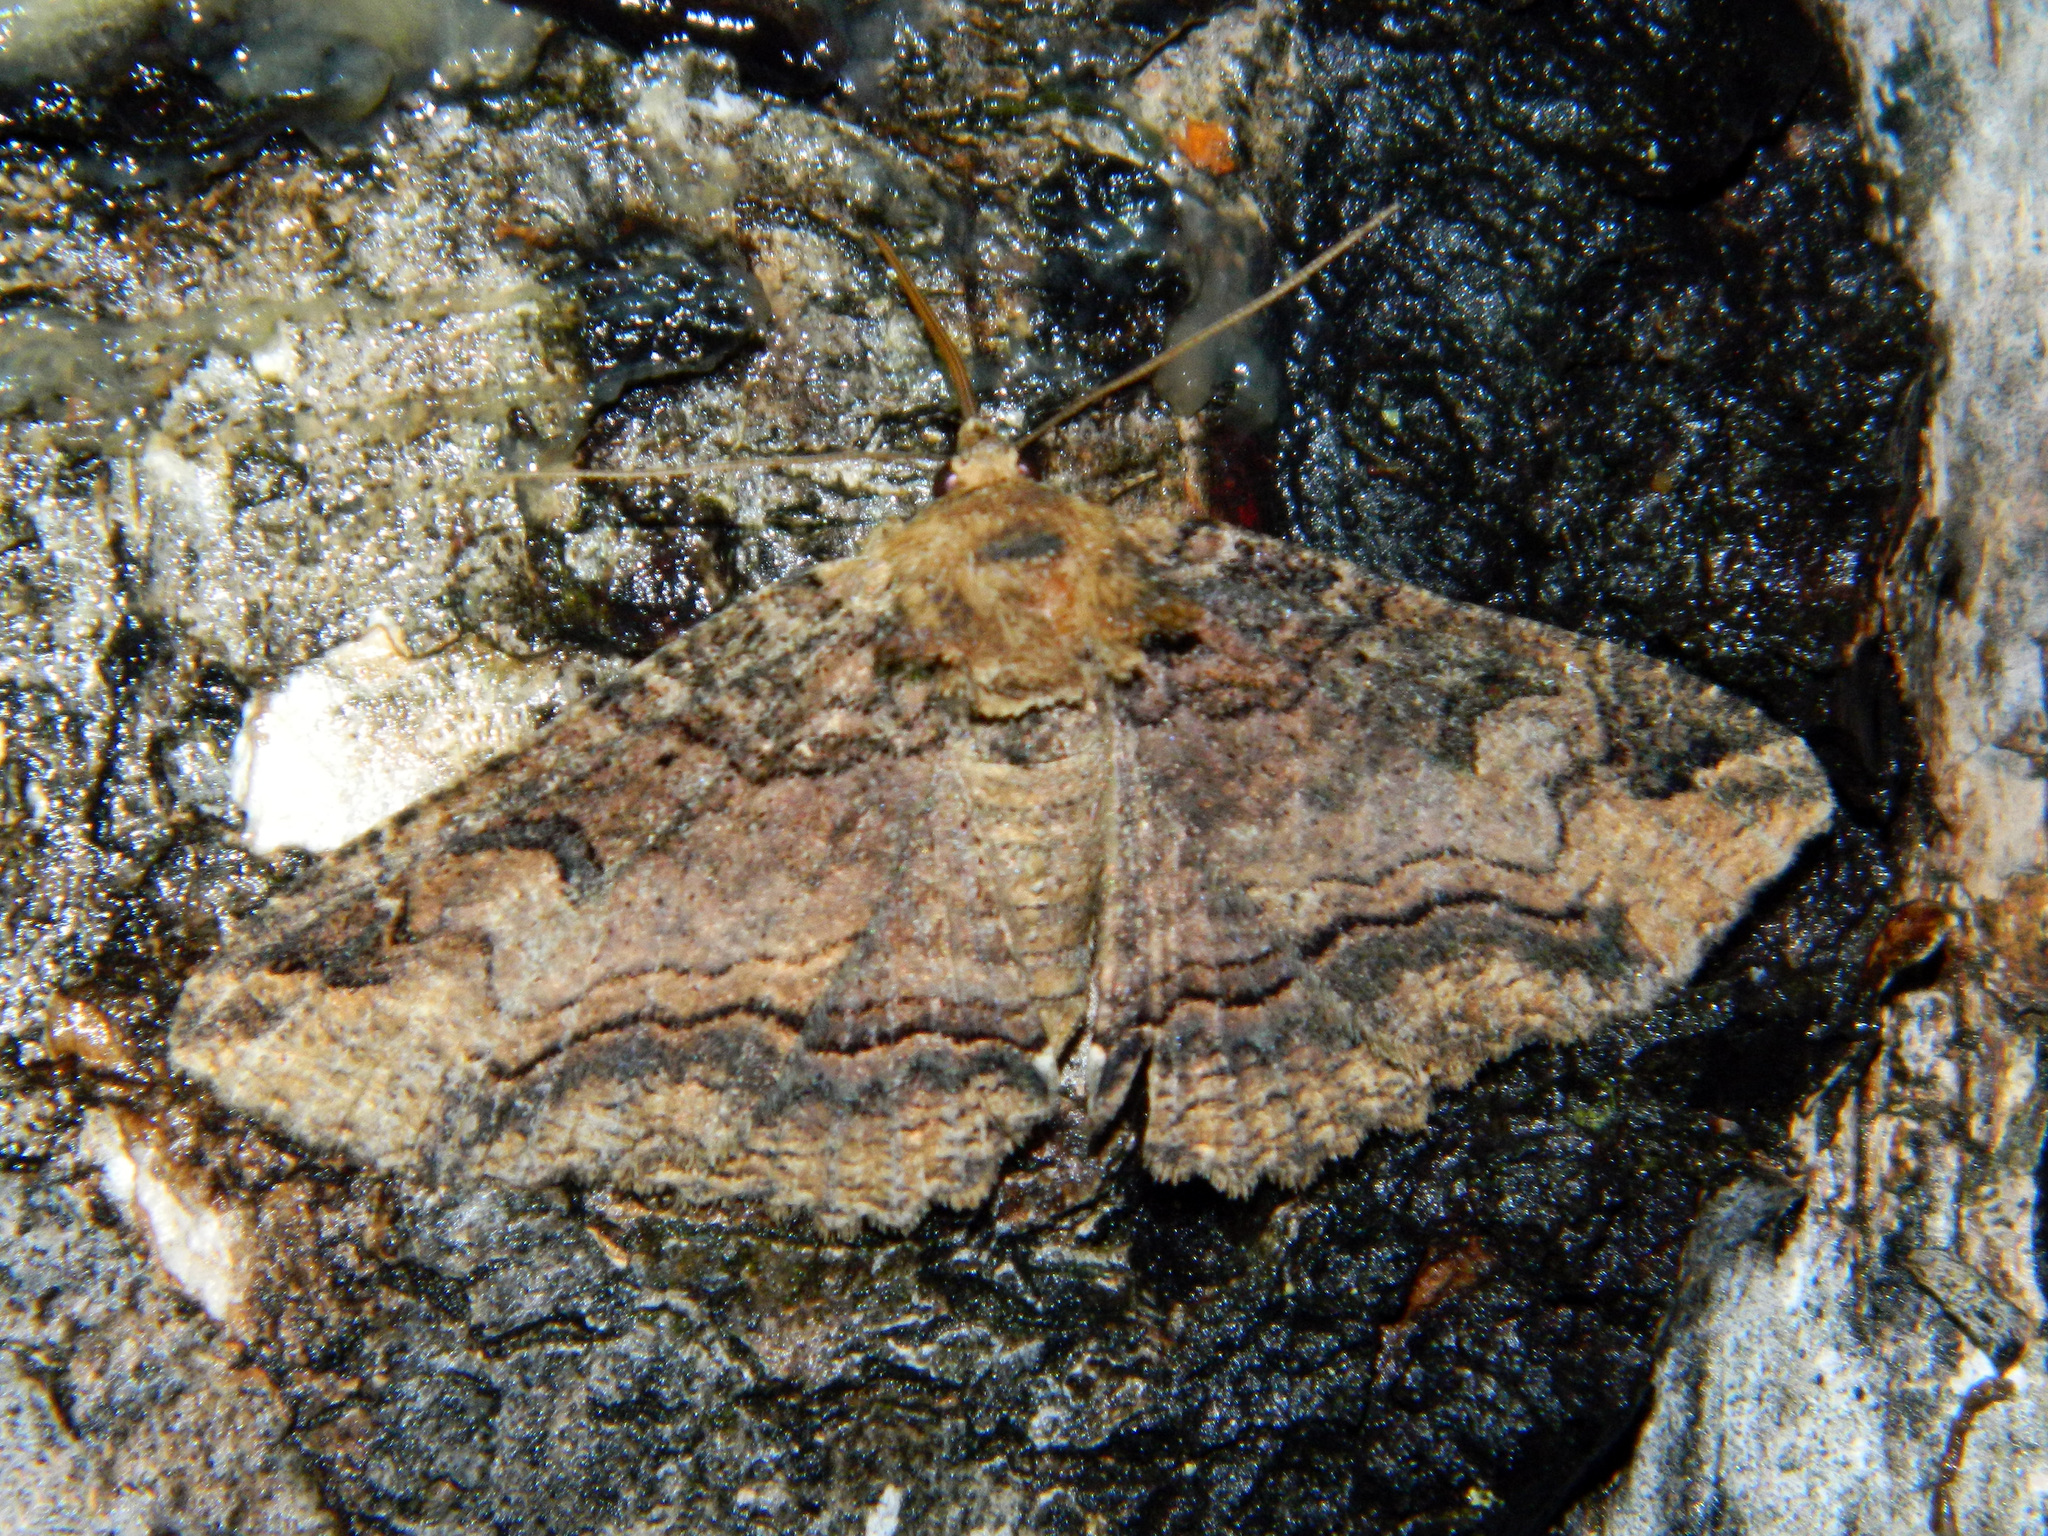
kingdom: Animalia
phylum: Arthropoda
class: Insecta
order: Lepidoptera
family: Erebidae
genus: Zale
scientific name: Zale minerea
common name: Colorful zale moth
